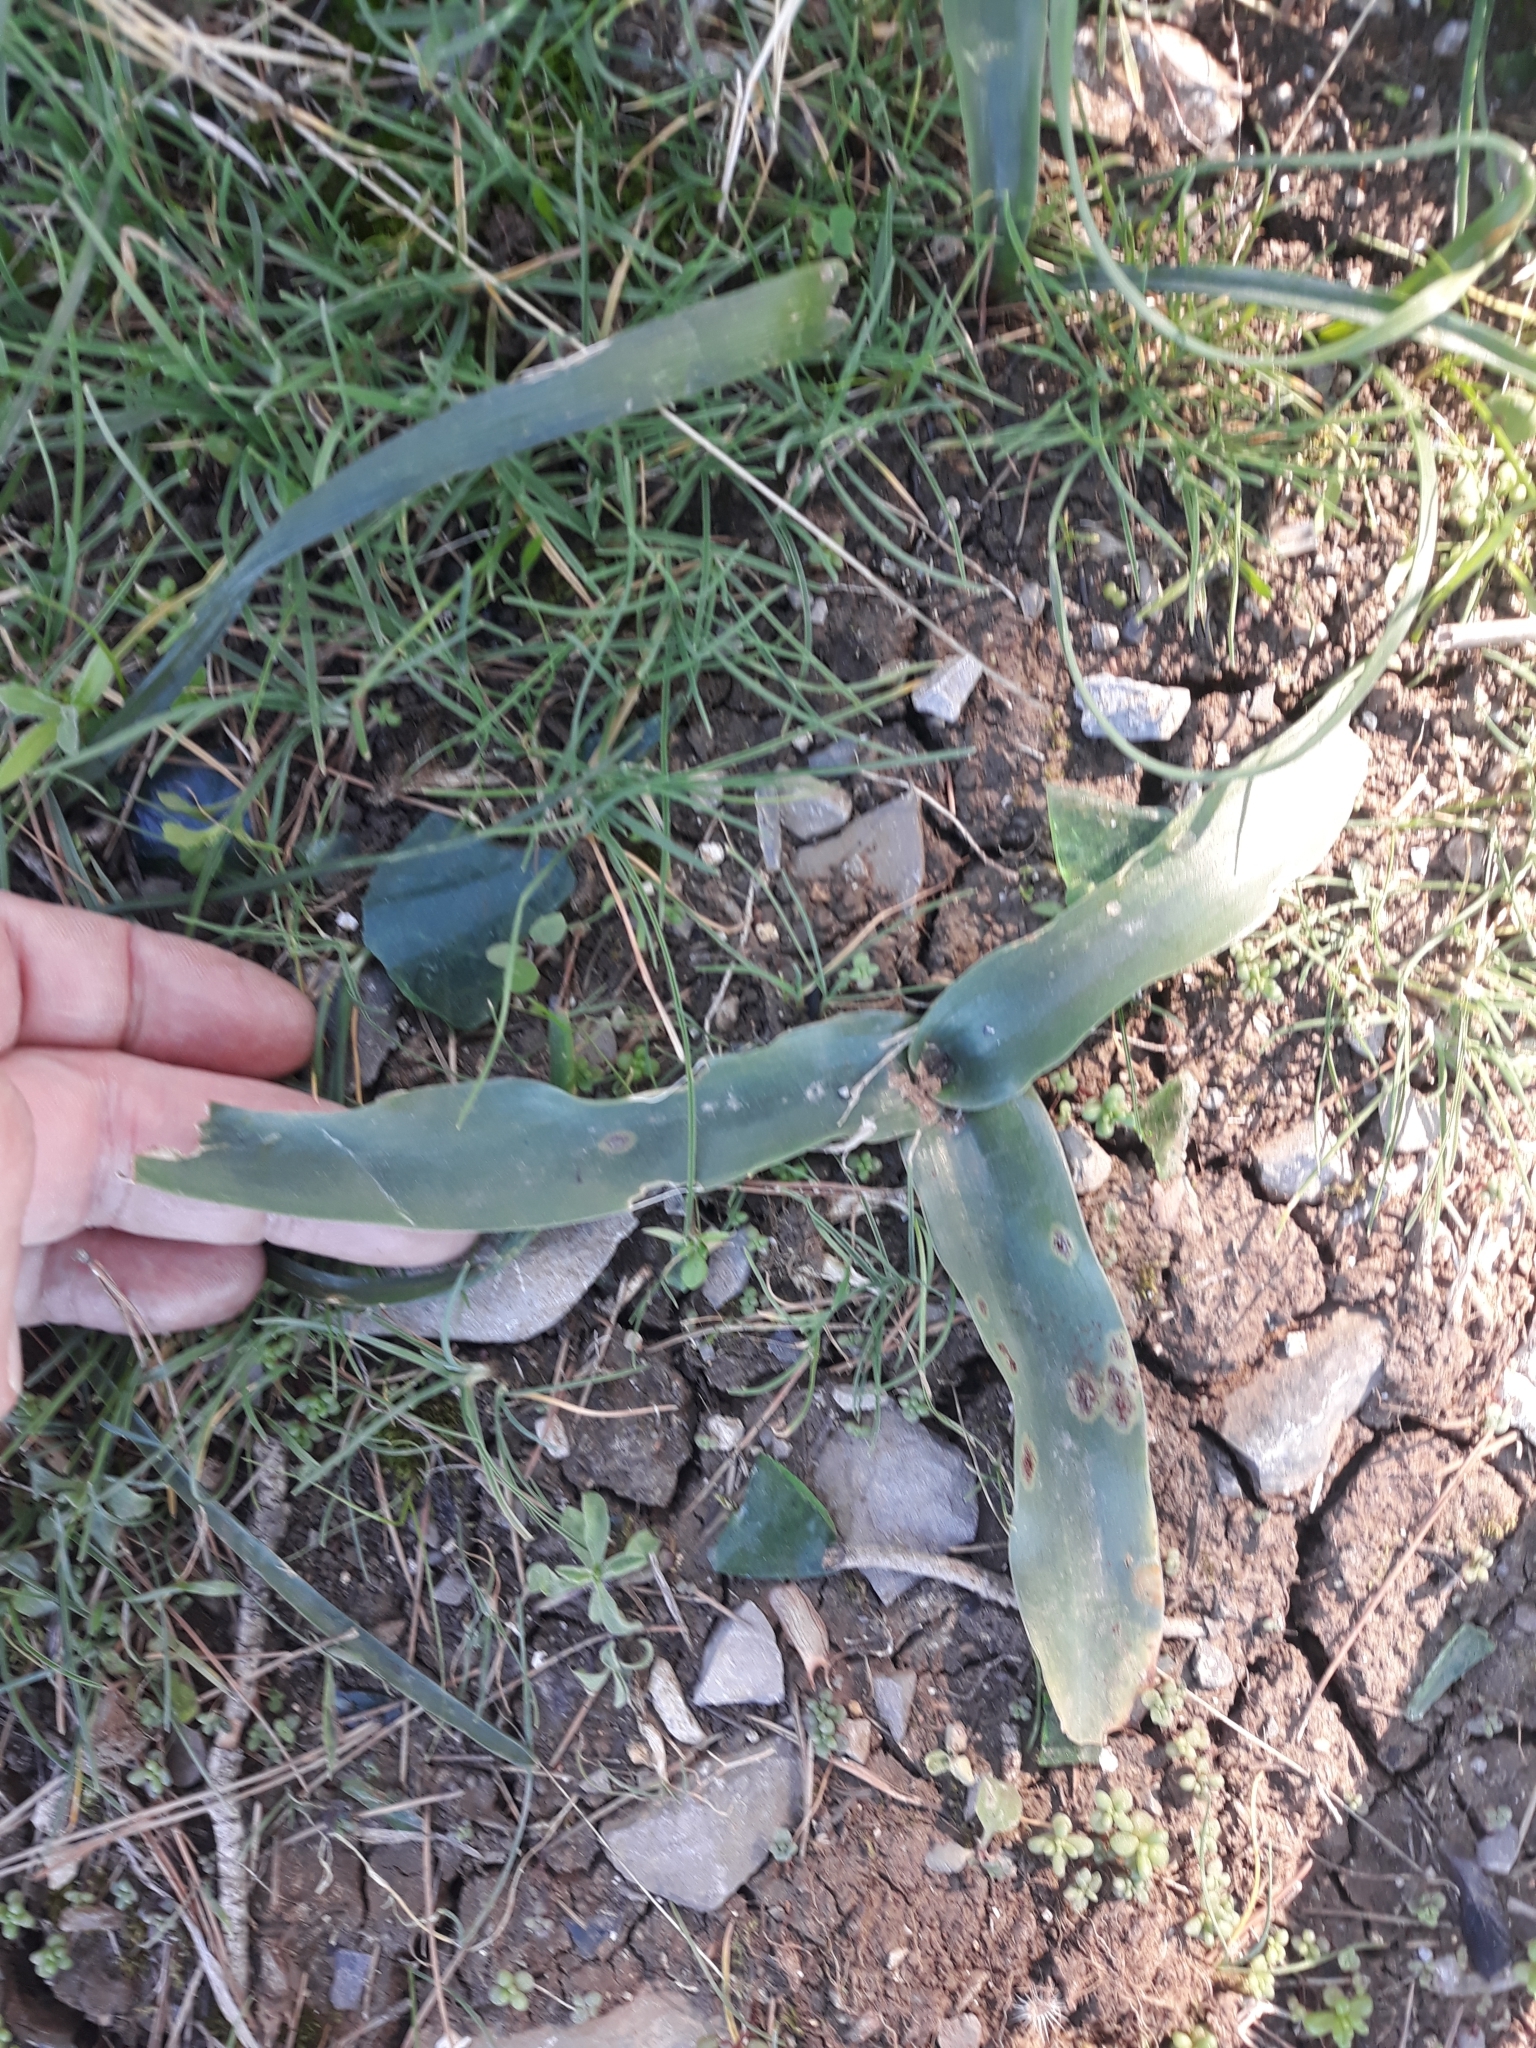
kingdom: Plantae
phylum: Tracheophyta
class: Liliopsida
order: Asparagales
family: Asparagaceae
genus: Prospero
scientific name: Prospero obtusifolium
